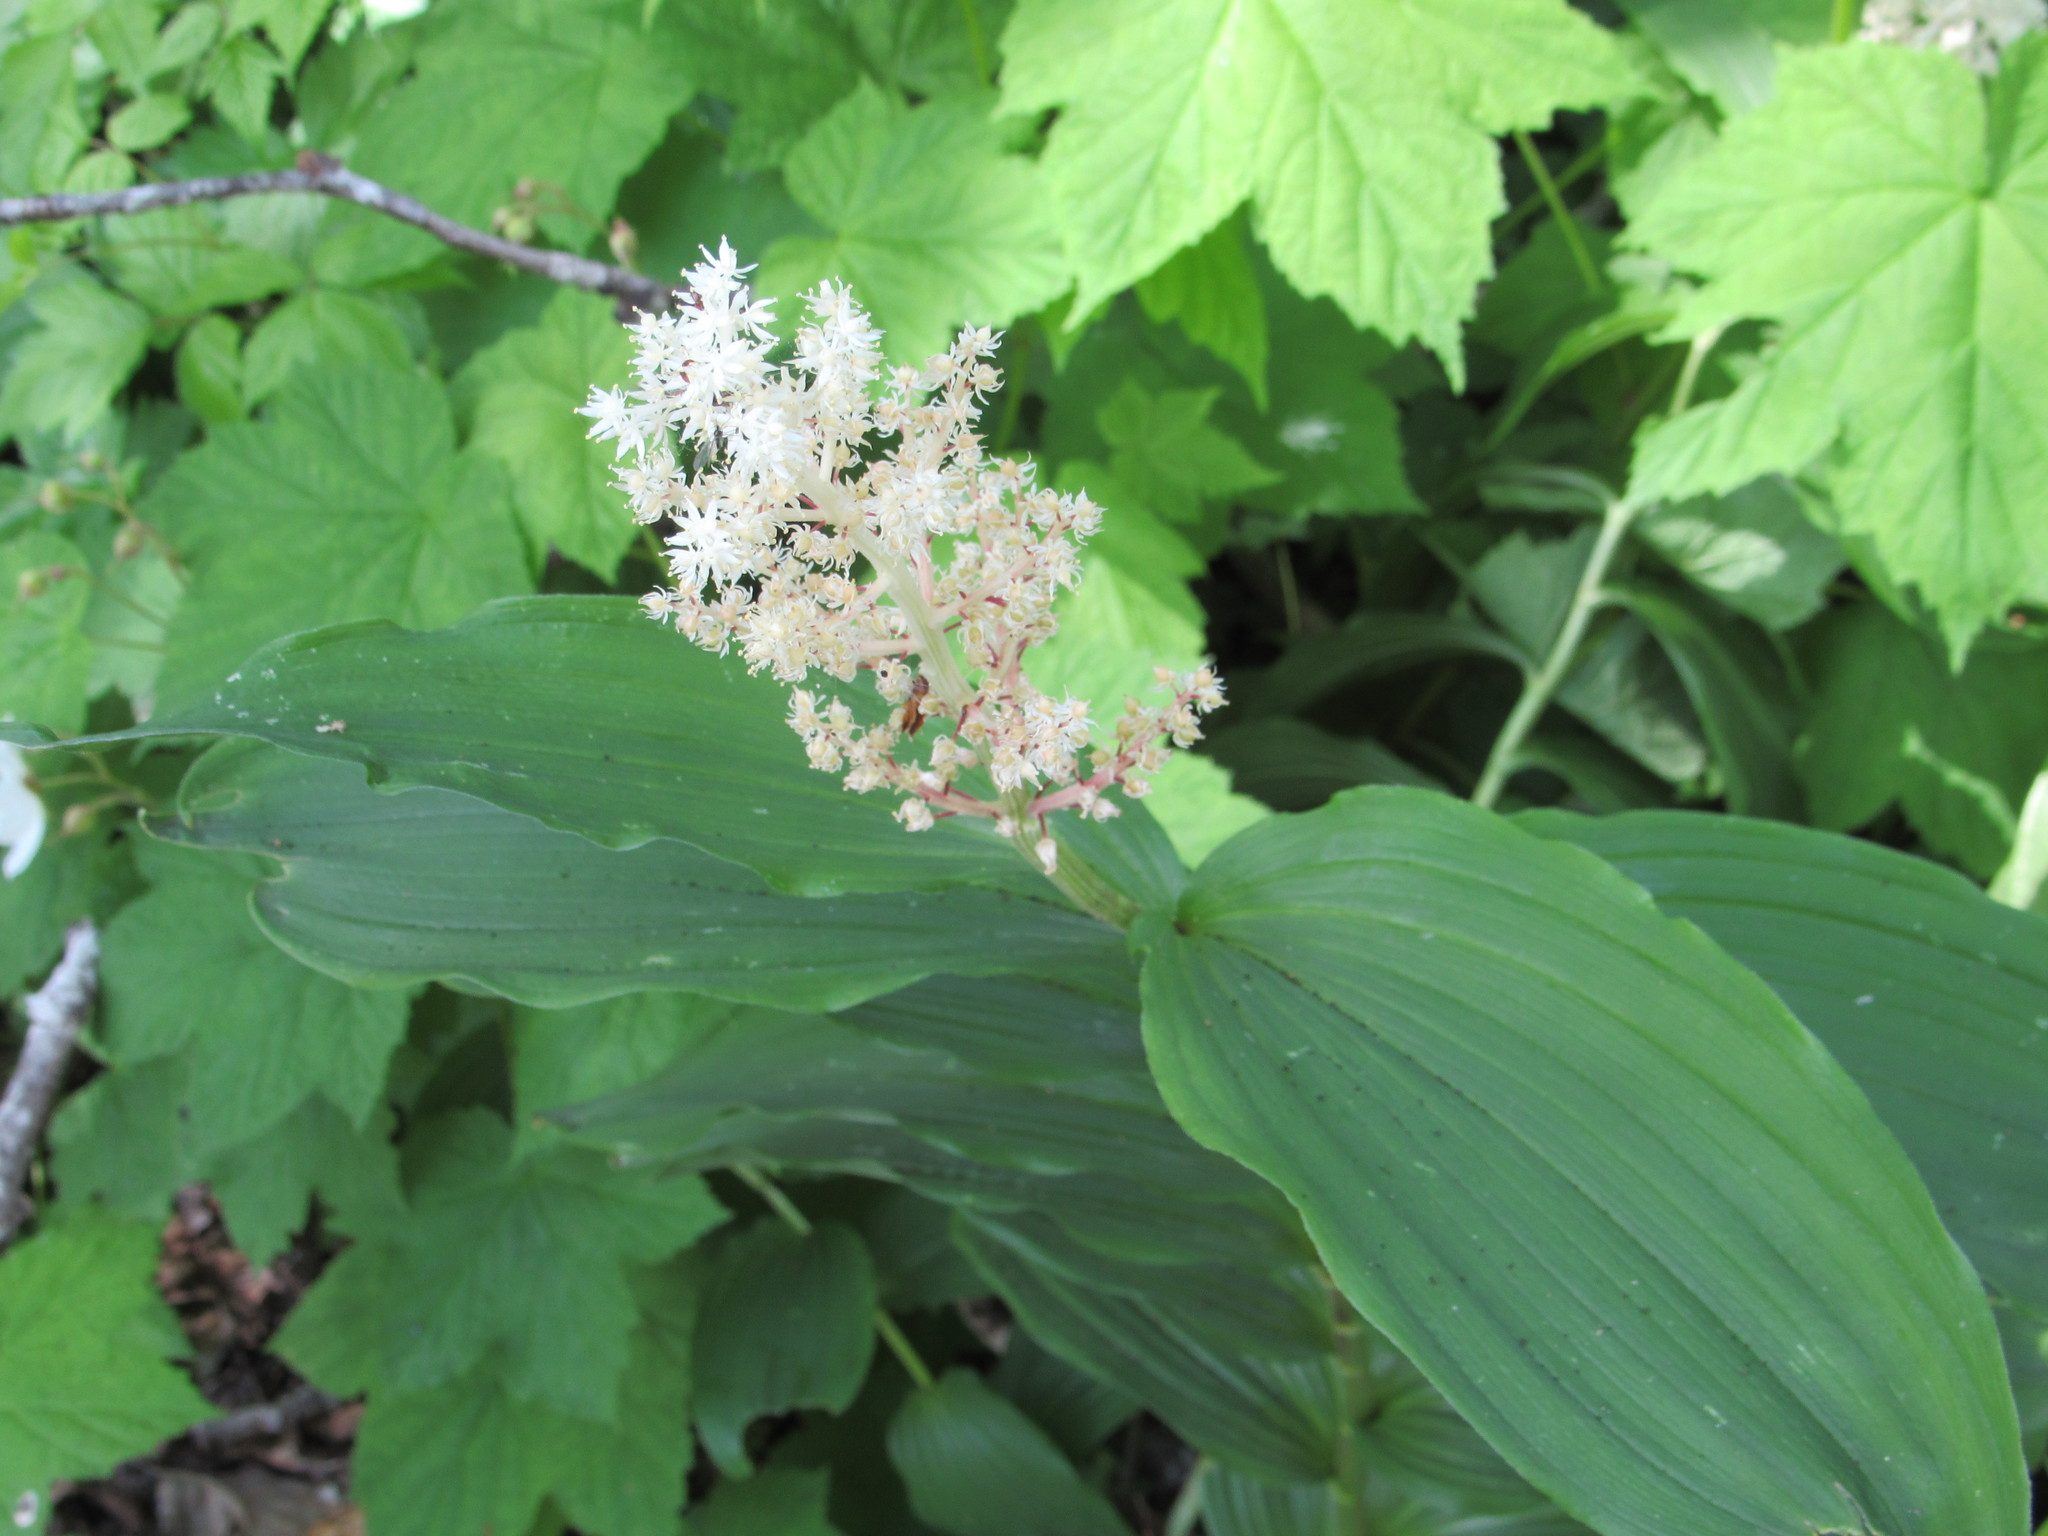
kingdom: Plantae
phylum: Tracheophyta
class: Liliopsida
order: Asparagales
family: Asparagaceae
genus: Maianthemum
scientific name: Maianthemum racemosum
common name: False spikenard
